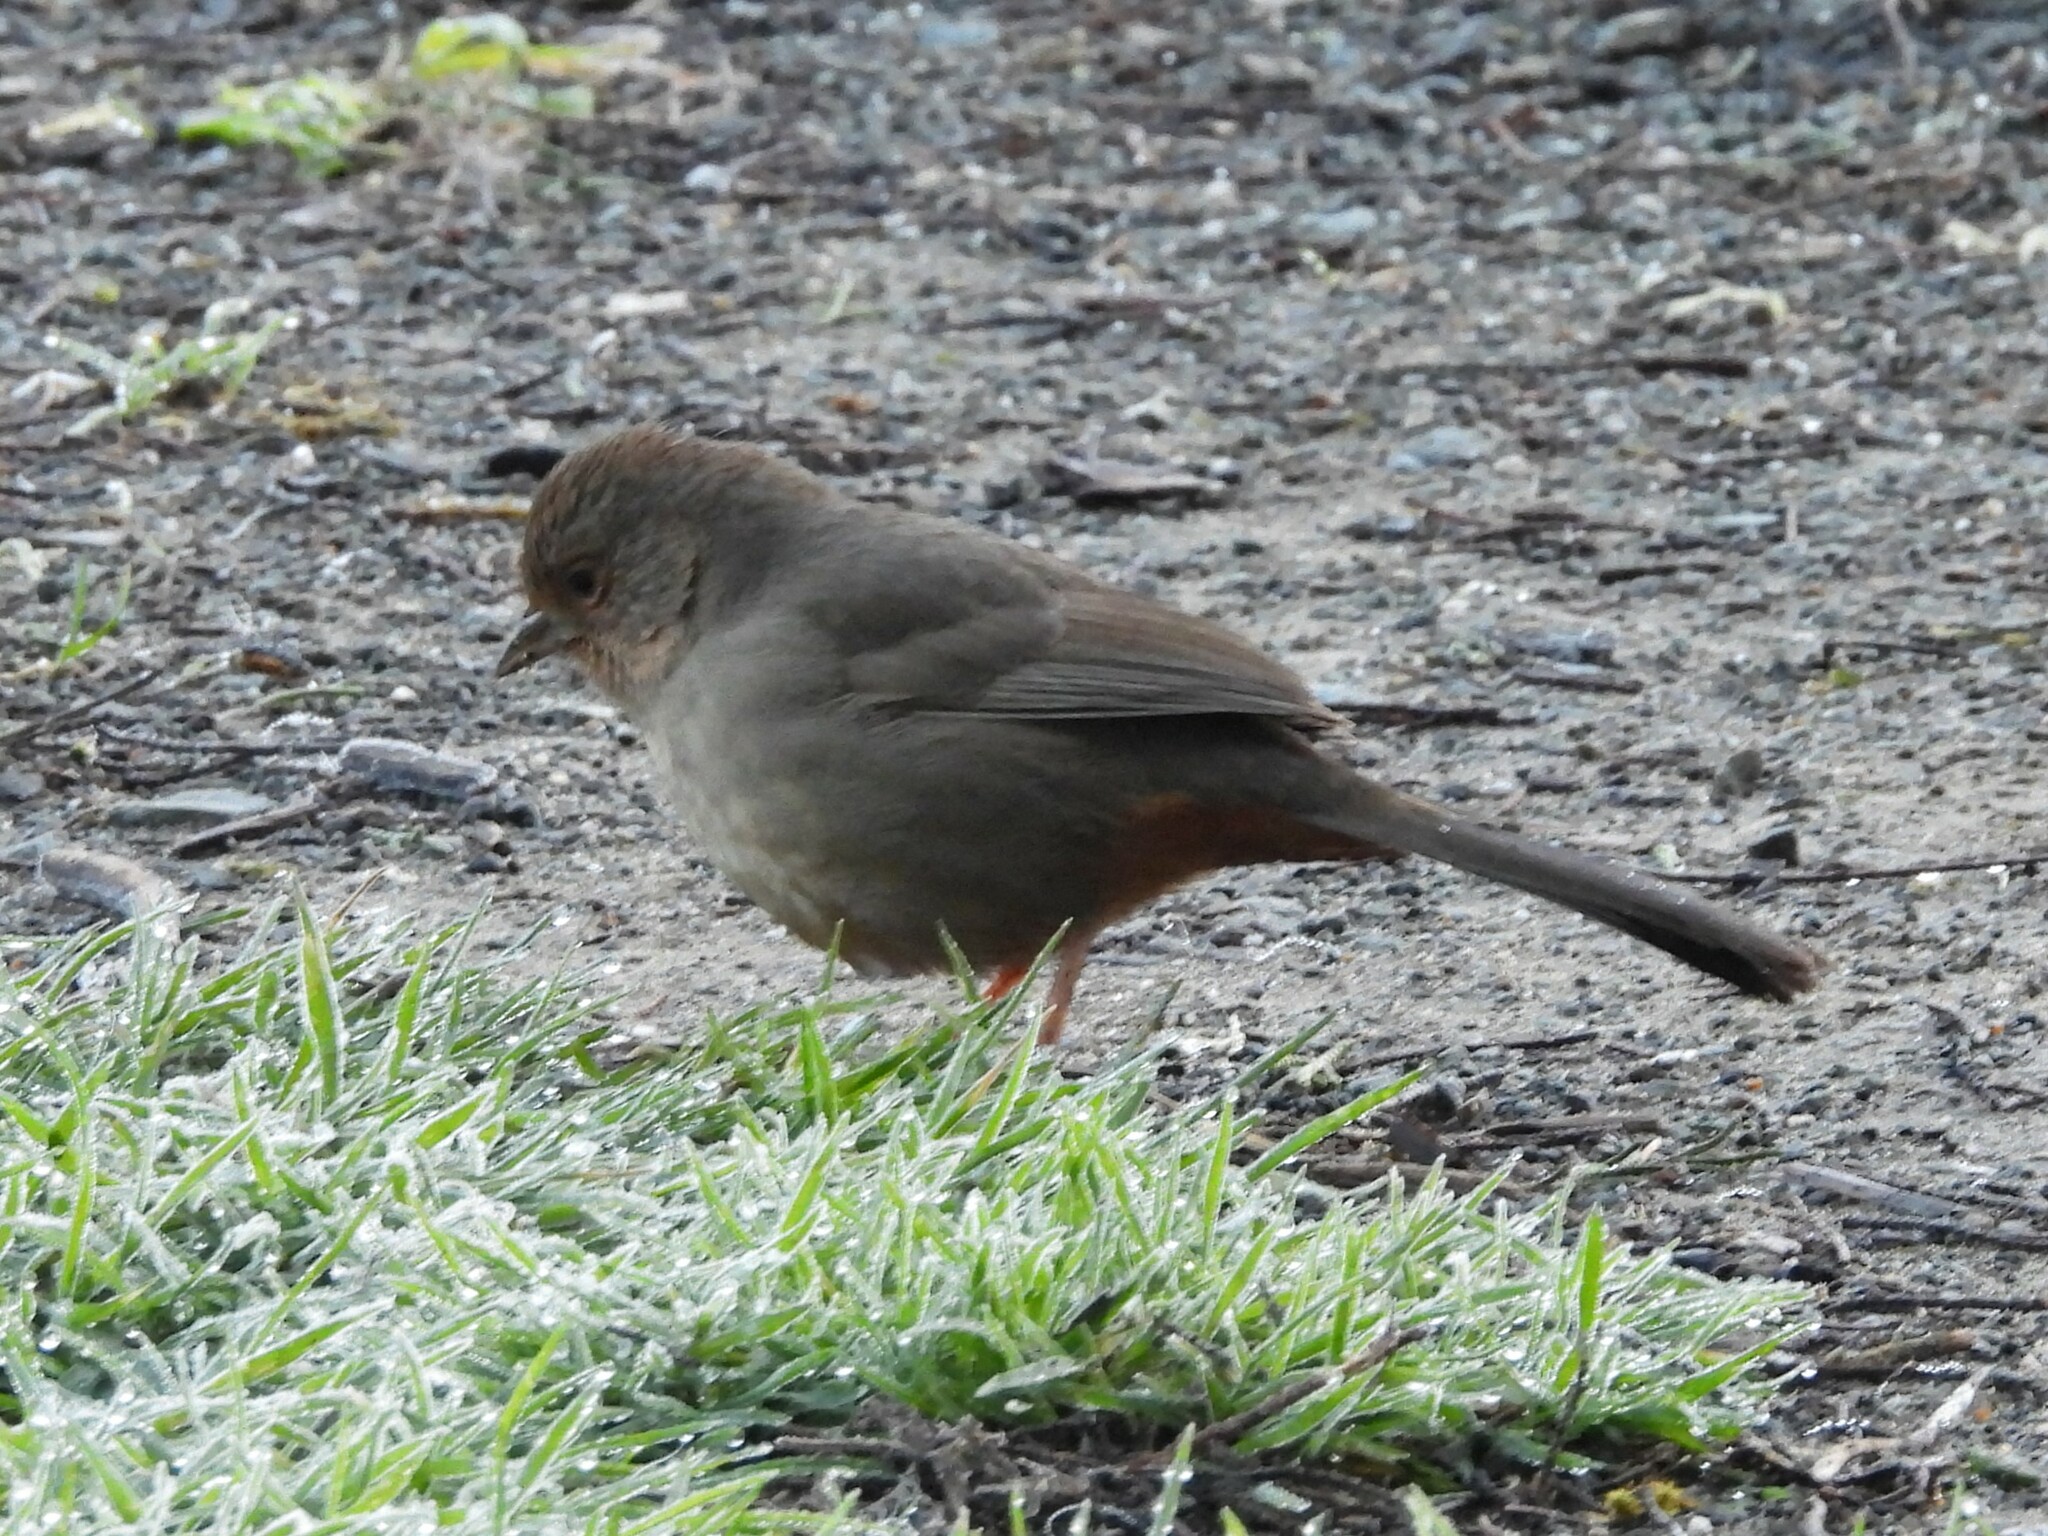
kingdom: Animalia
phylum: Chordata
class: Aves
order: Passeriformes
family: Passerellidae
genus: Melozone
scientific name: Melozone crissalis
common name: California towhee
